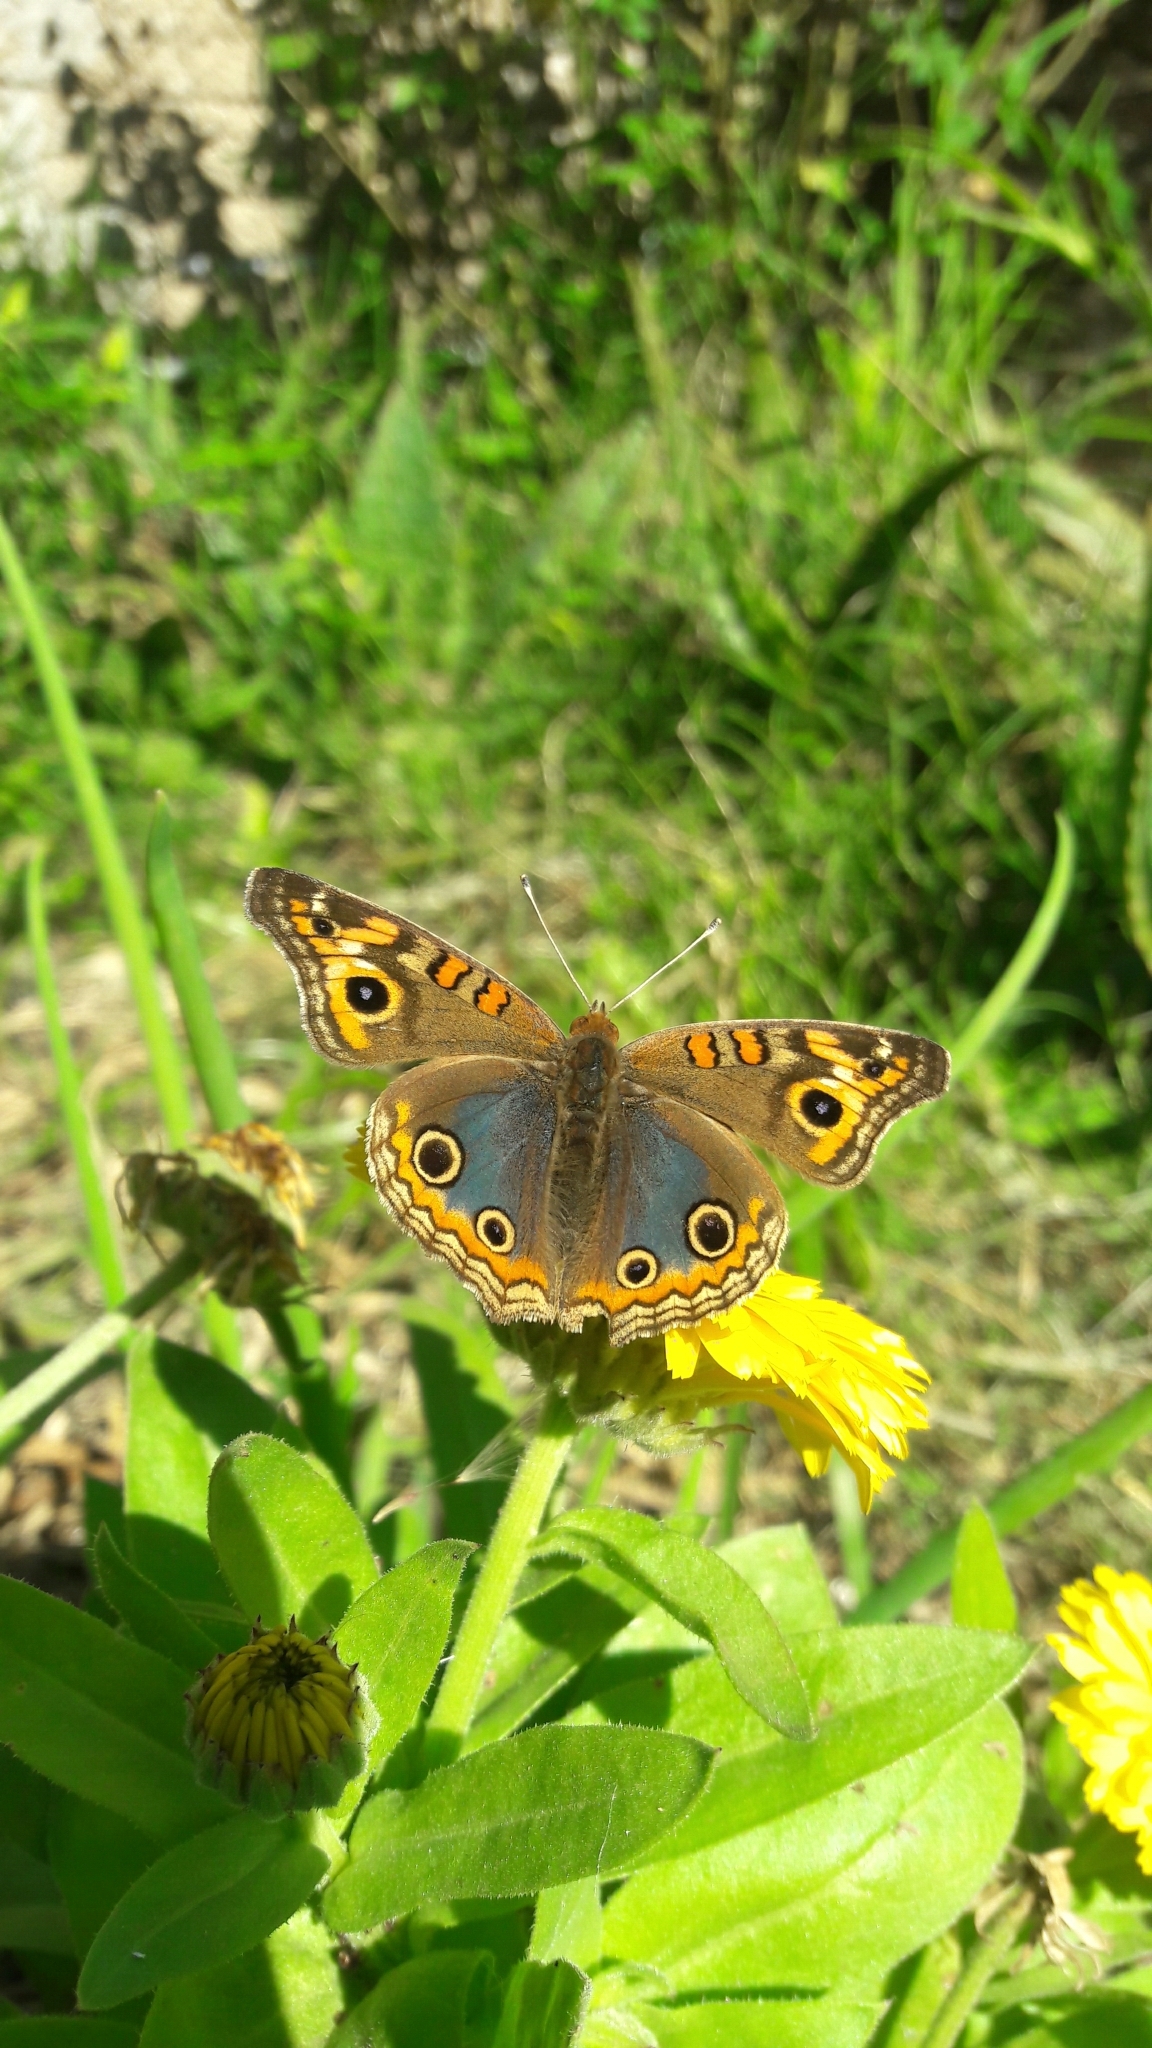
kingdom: Animalia
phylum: Arthropoda
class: Insecta
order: Lepidoptera
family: Nymphalidae
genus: Junonia
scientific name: Junonia lavinia
